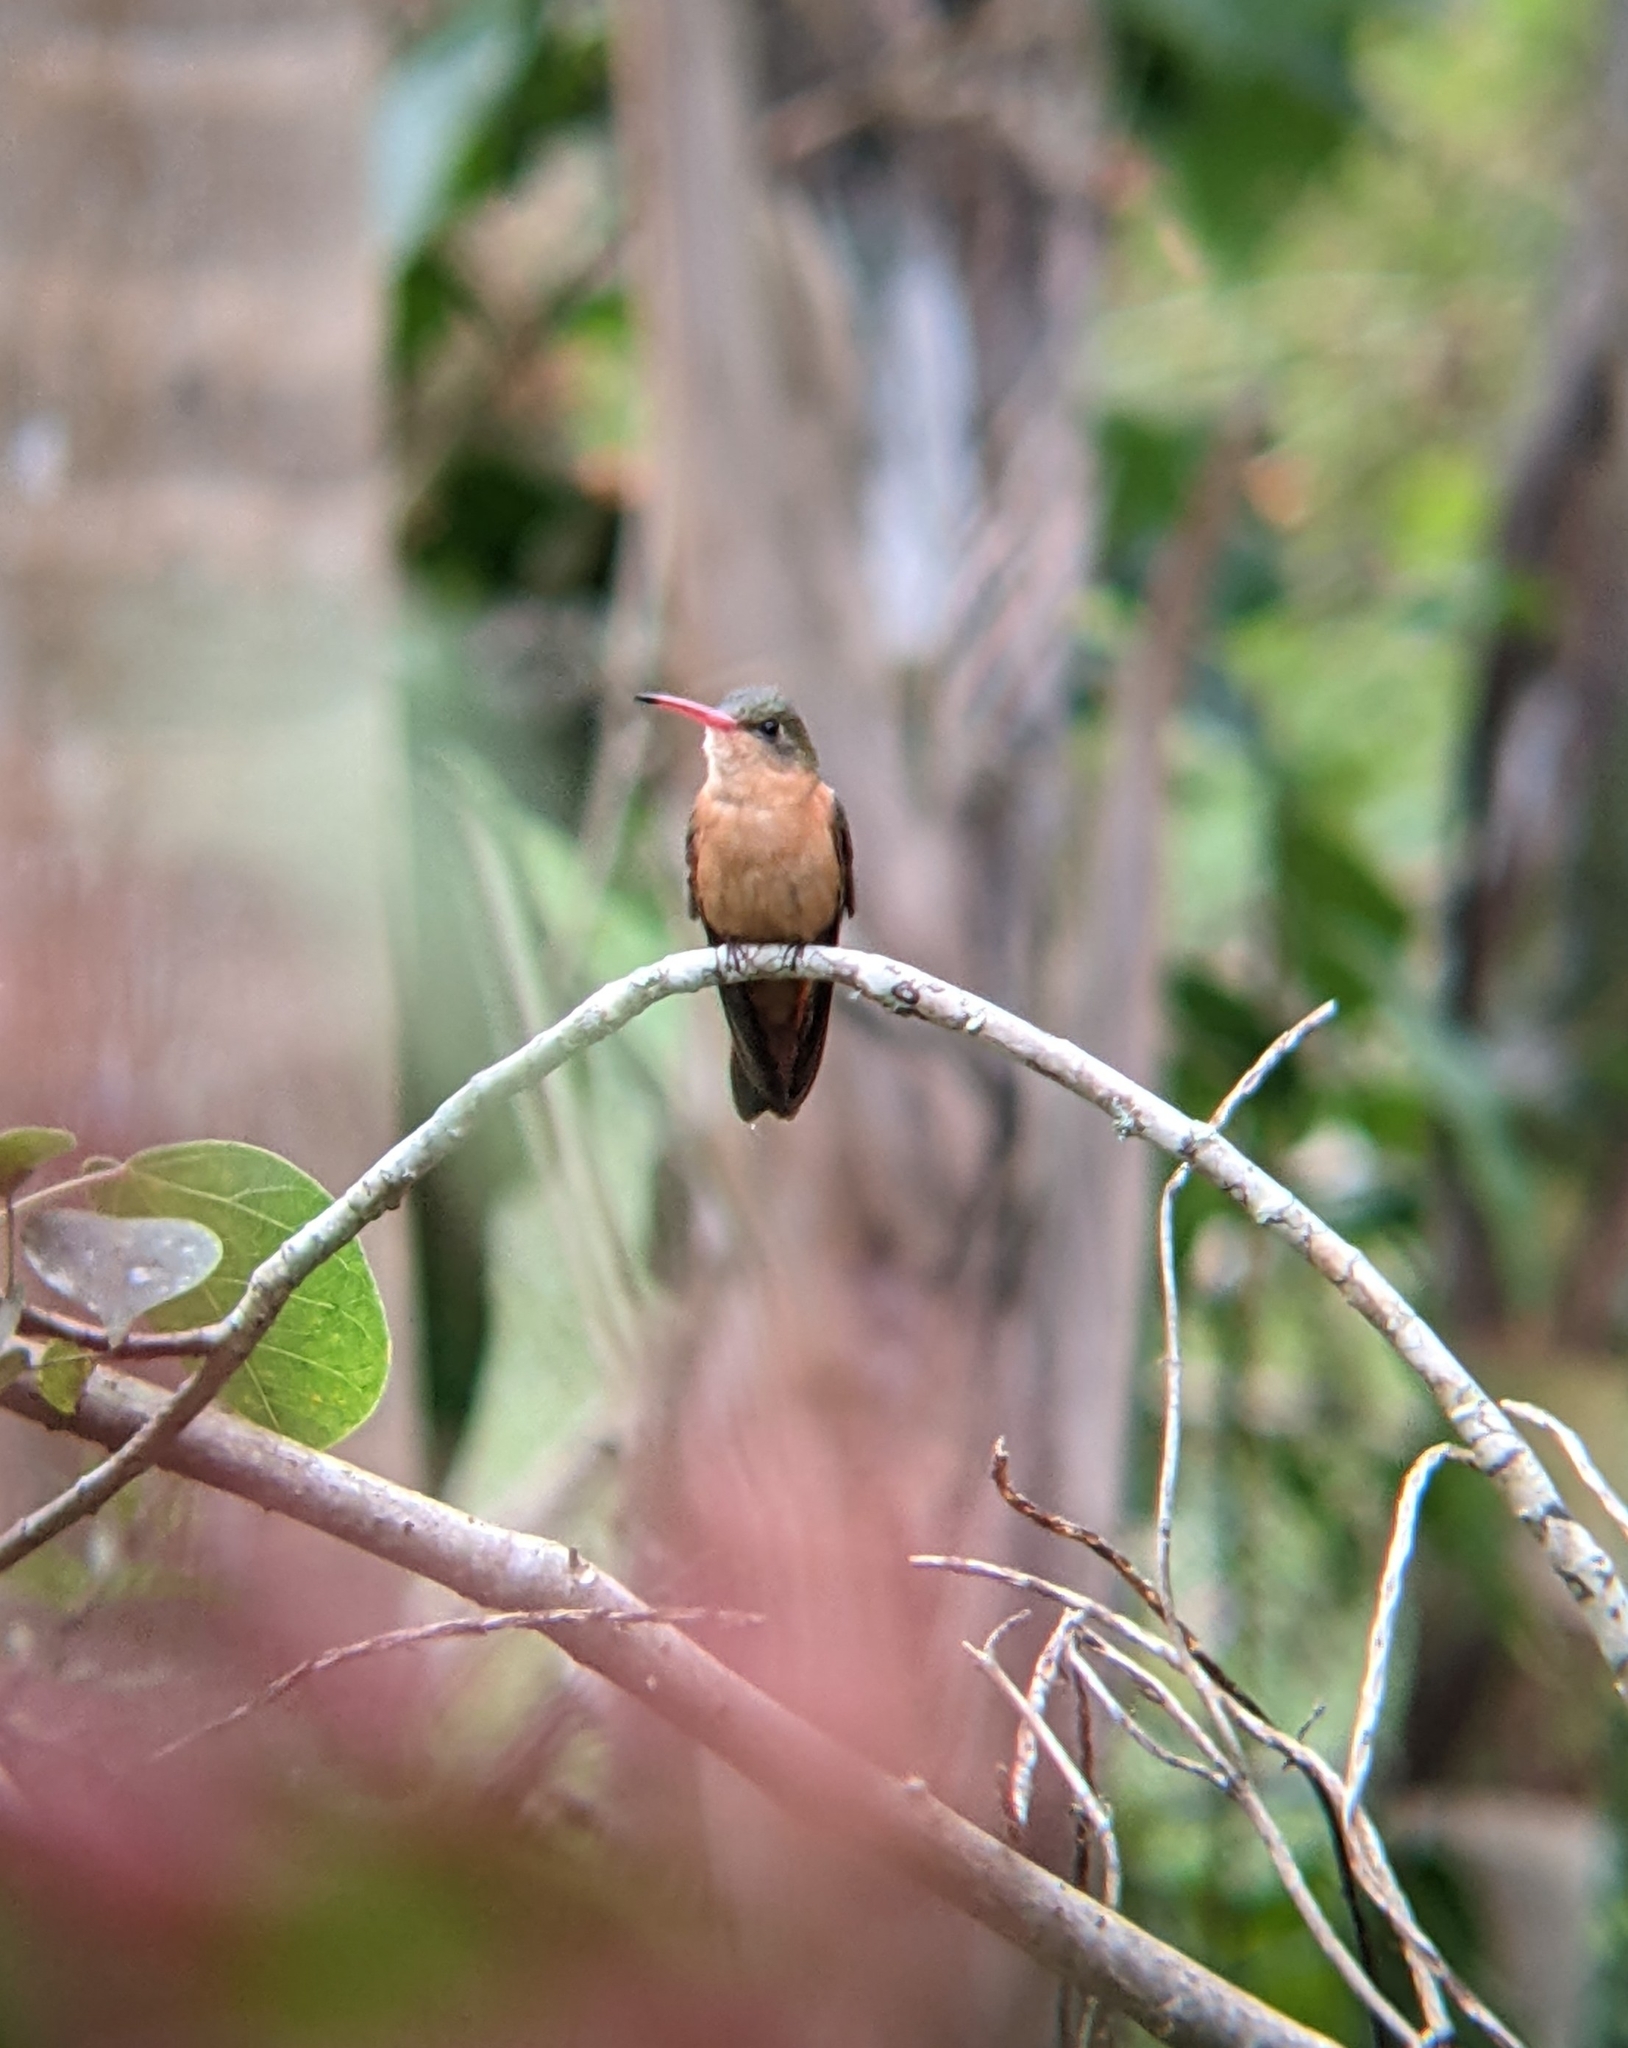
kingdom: Animalia
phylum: Chordata
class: Aves
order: Apodiformes
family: Trochilidae
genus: Amazilia
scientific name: Amazilia rutila
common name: Cinnamon hummingbird
